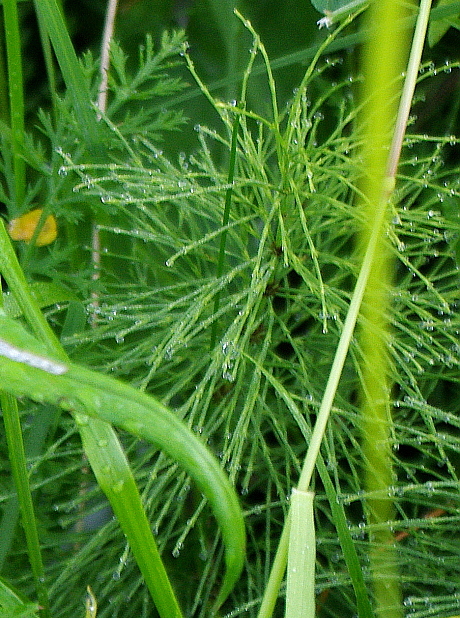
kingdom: Plantae
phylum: Tracheophyta
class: Polypodiopsida
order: Equisetales
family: Equisetaceae
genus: Equisetum
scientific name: Equisetum sylvaticum
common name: Wood horsetail
